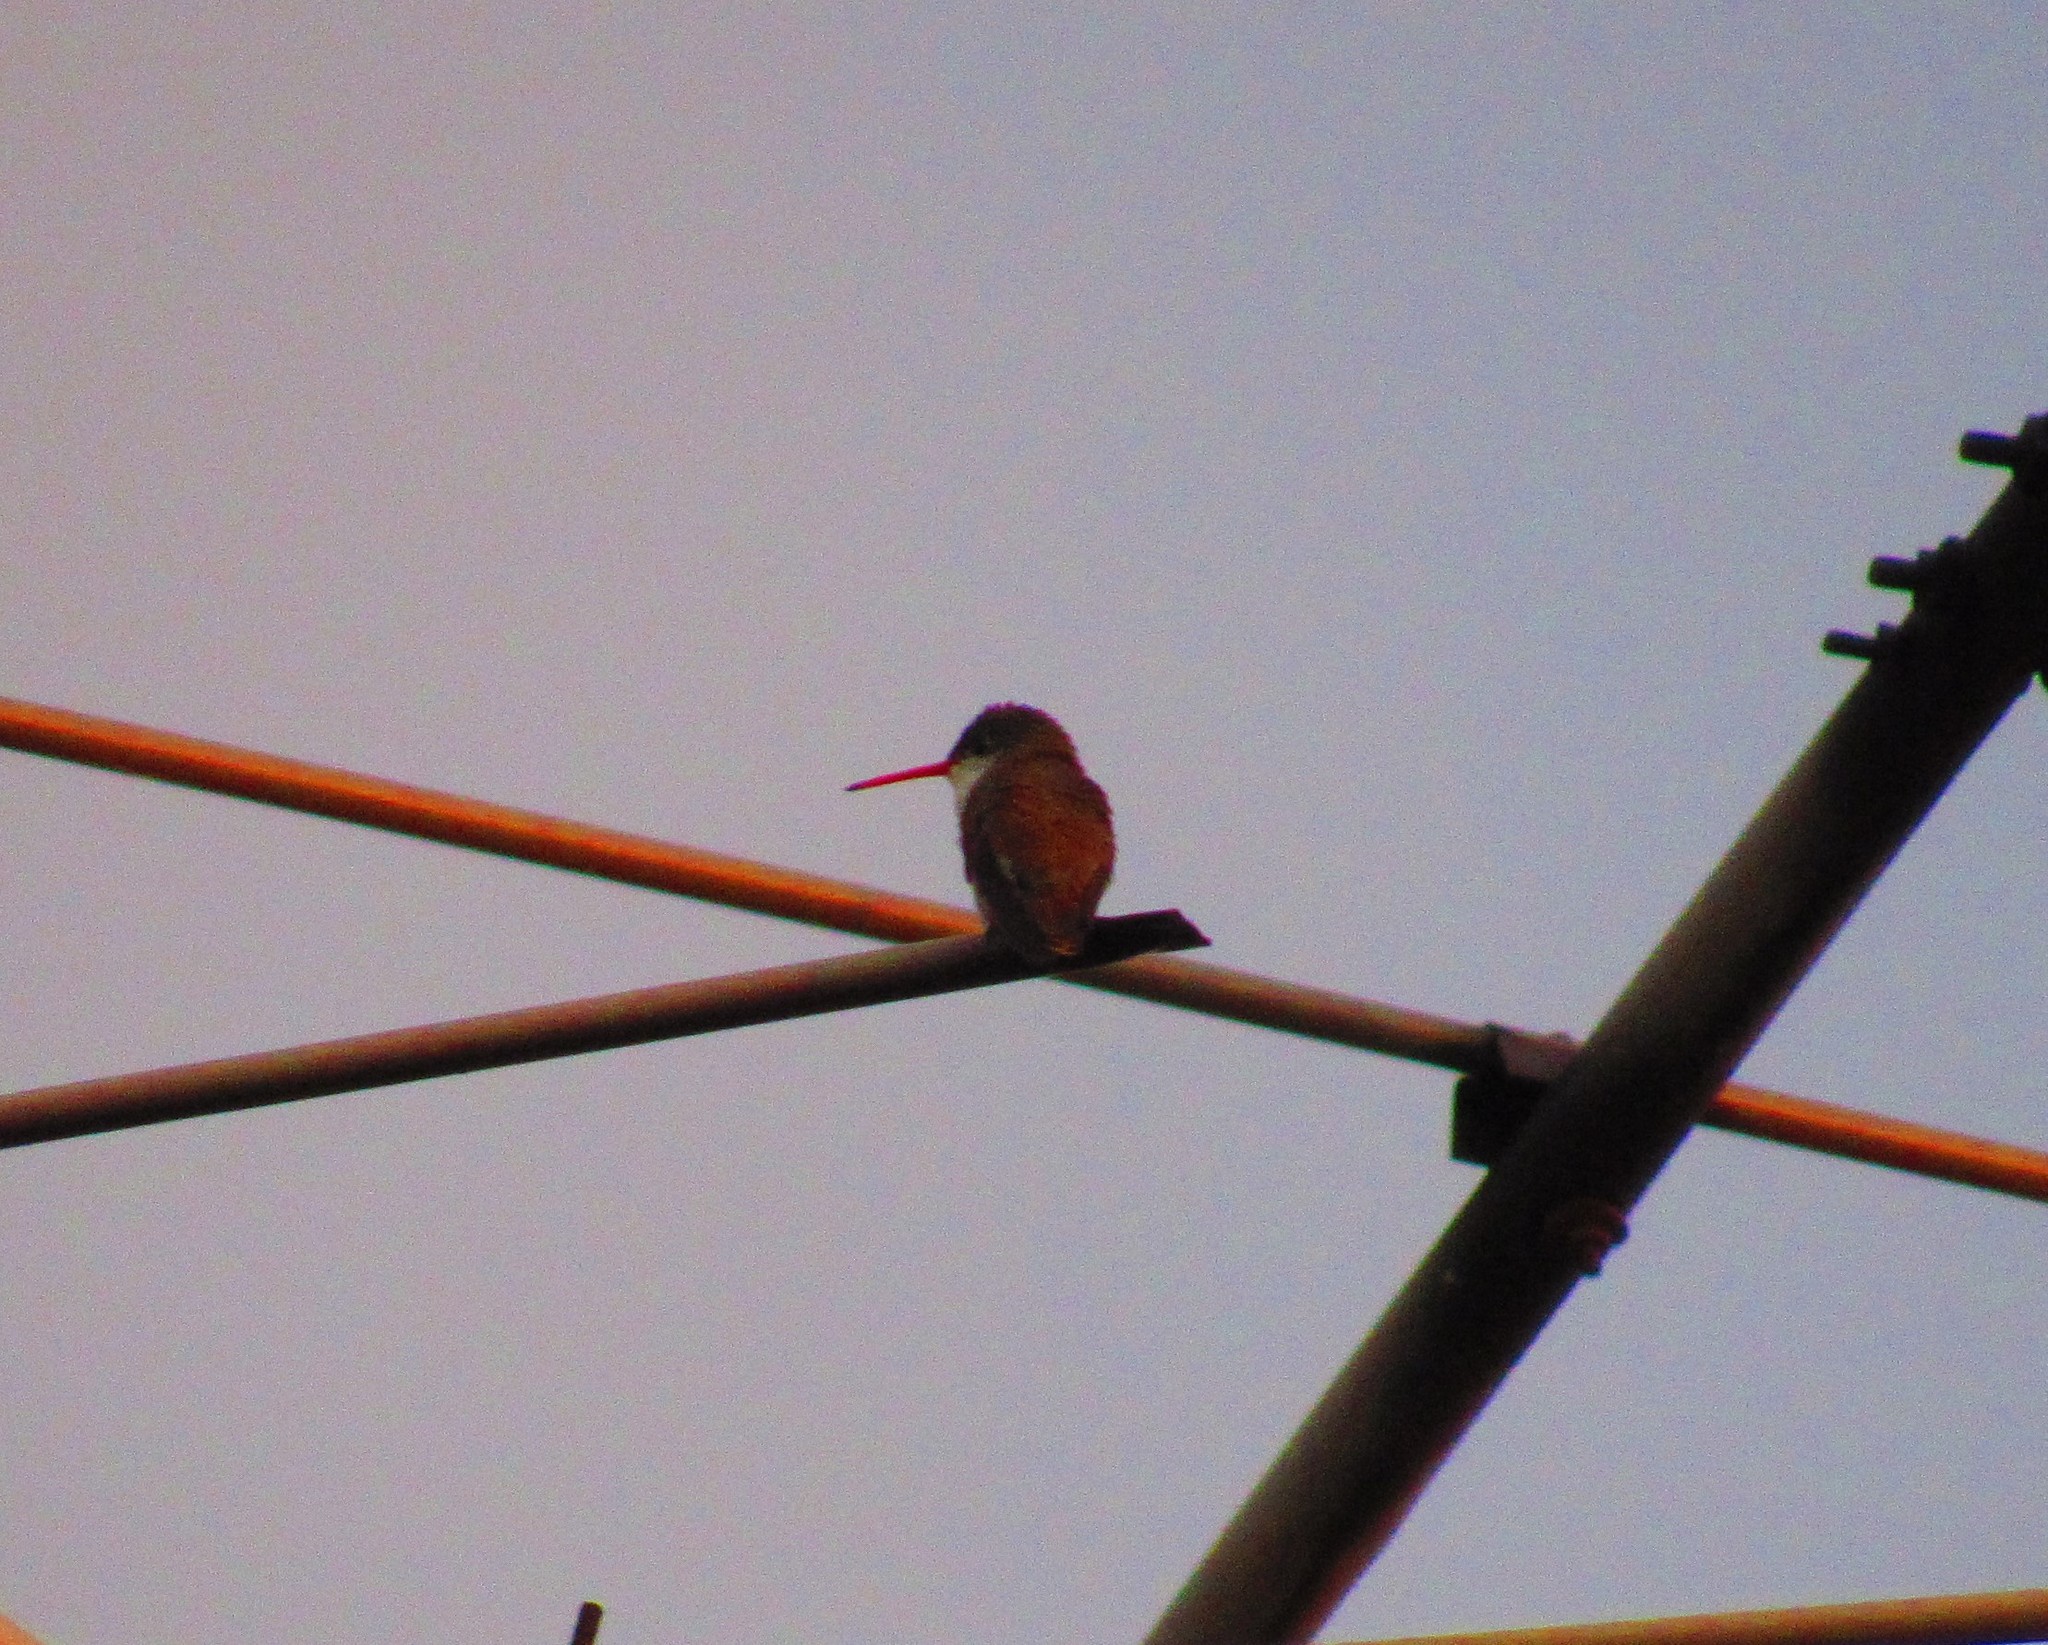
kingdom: Animalia
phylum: Chordata
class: Aves
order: Apodiformes
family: Trochilidae
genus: Leucolia
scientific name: Leucolia violiceps
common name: Violet-crowned hummingbird
